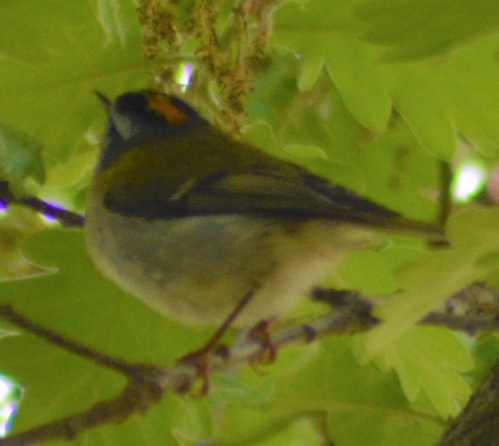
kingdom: Animalia
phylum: Chordata
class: Aves
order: Passeriformes
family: Regulidae
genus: Regulus
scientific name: Regulus ignicapilla
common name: Firecrest
